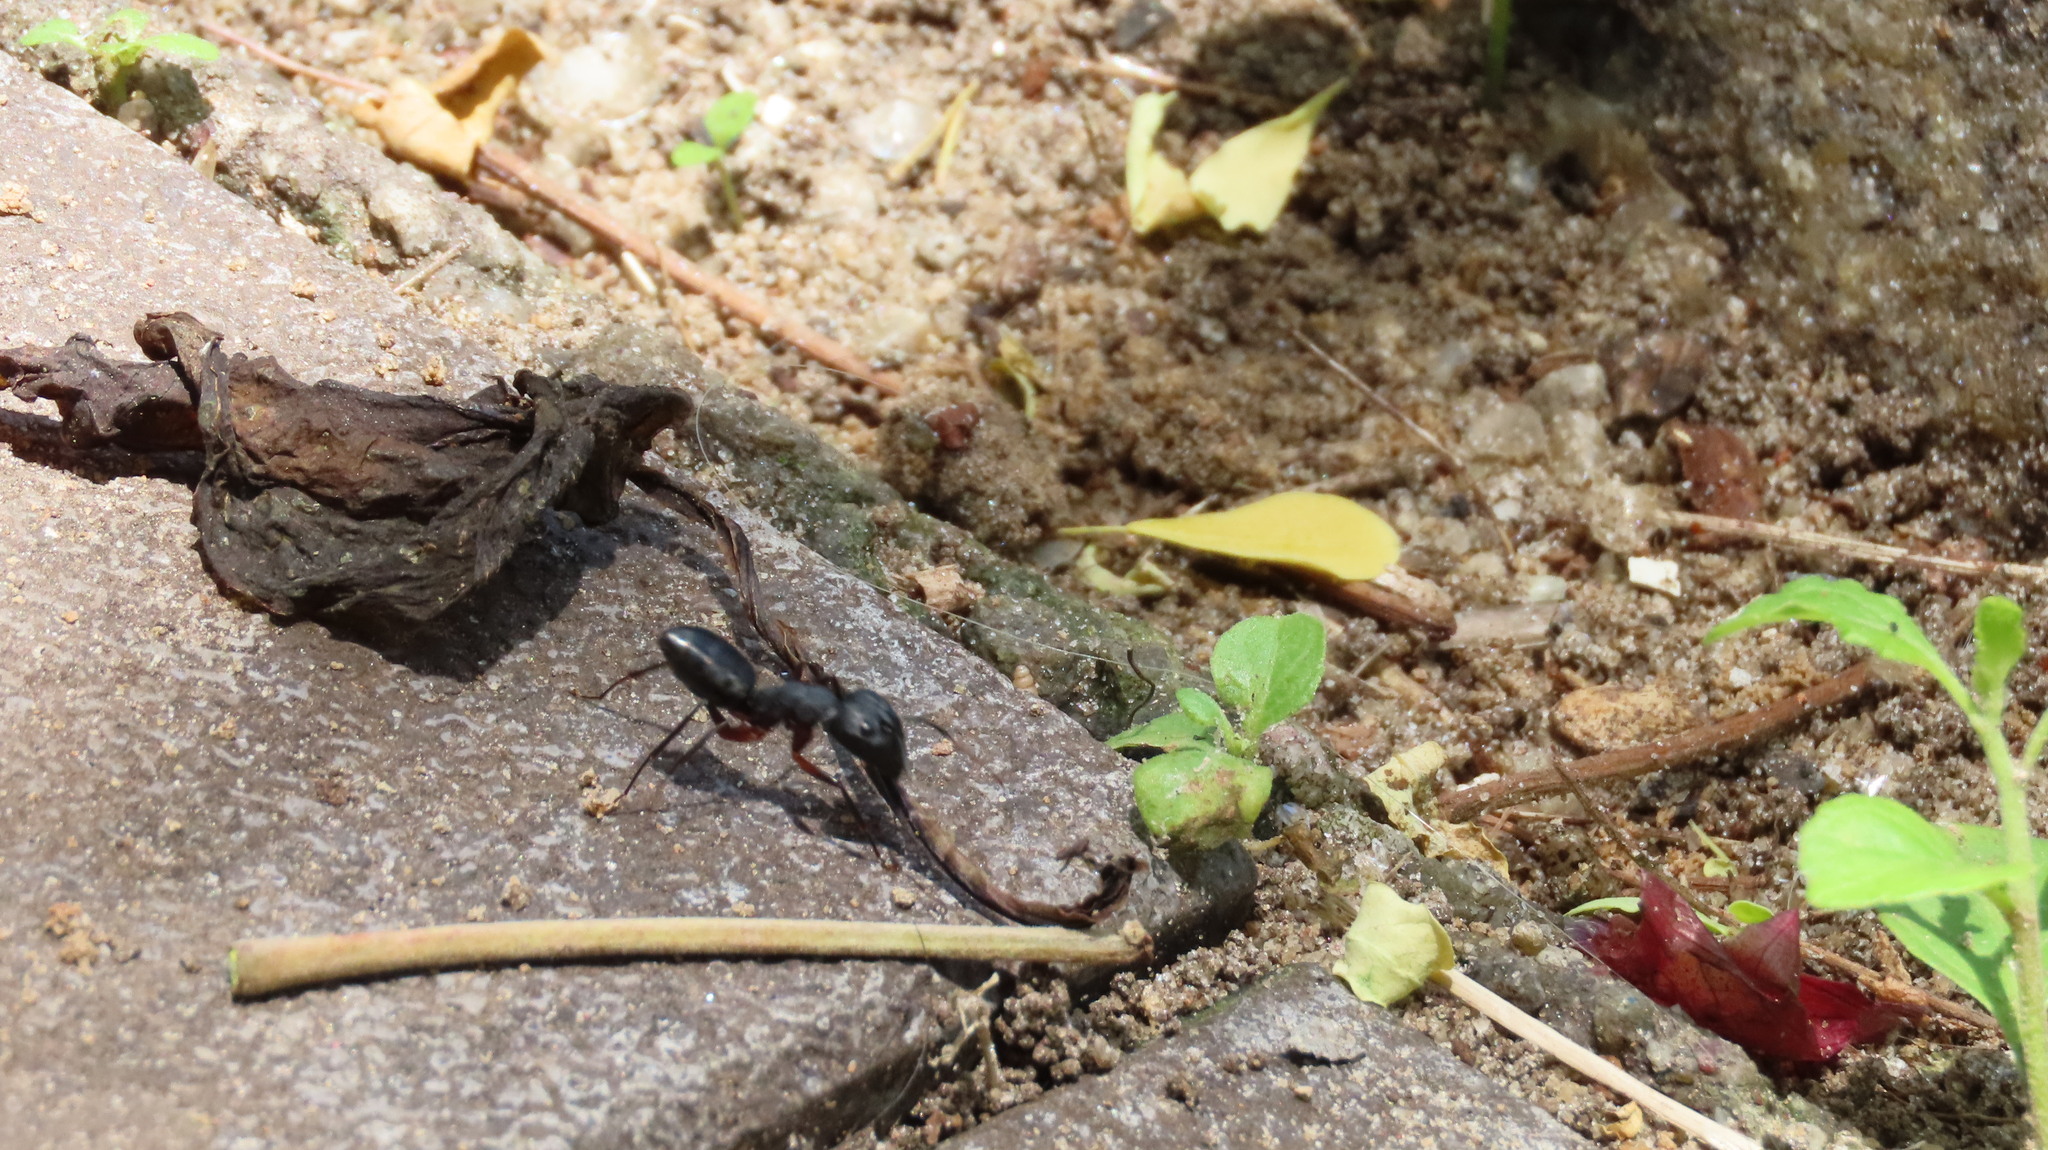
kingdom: Animalia
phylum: Arthropoda
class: Insecta
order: Hymenoptera
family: Formicidae
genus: Camponotus
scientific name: Camponotus compressus
